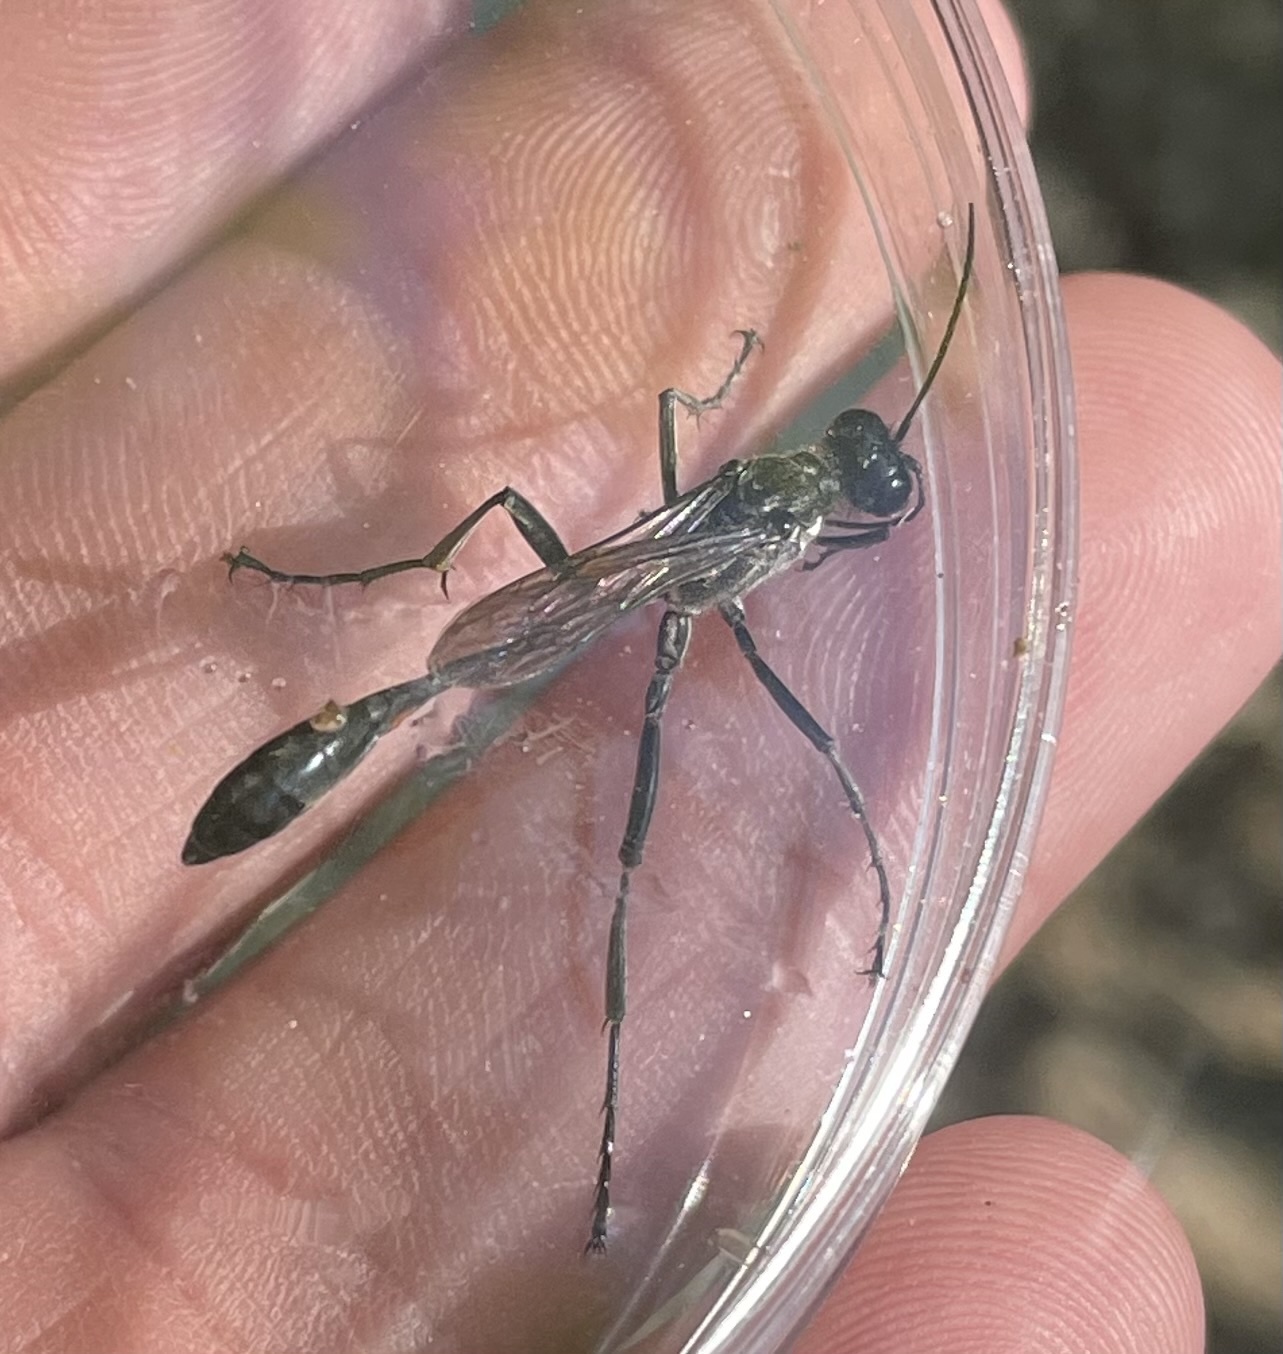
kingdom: Animalia
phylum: Arthropoda
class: Insecta
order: Hymenoptera
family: Sphecidae
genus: Eremnophila
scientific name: Eremnophila aureonotata
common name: Gold-marked thread-waisted wasp
